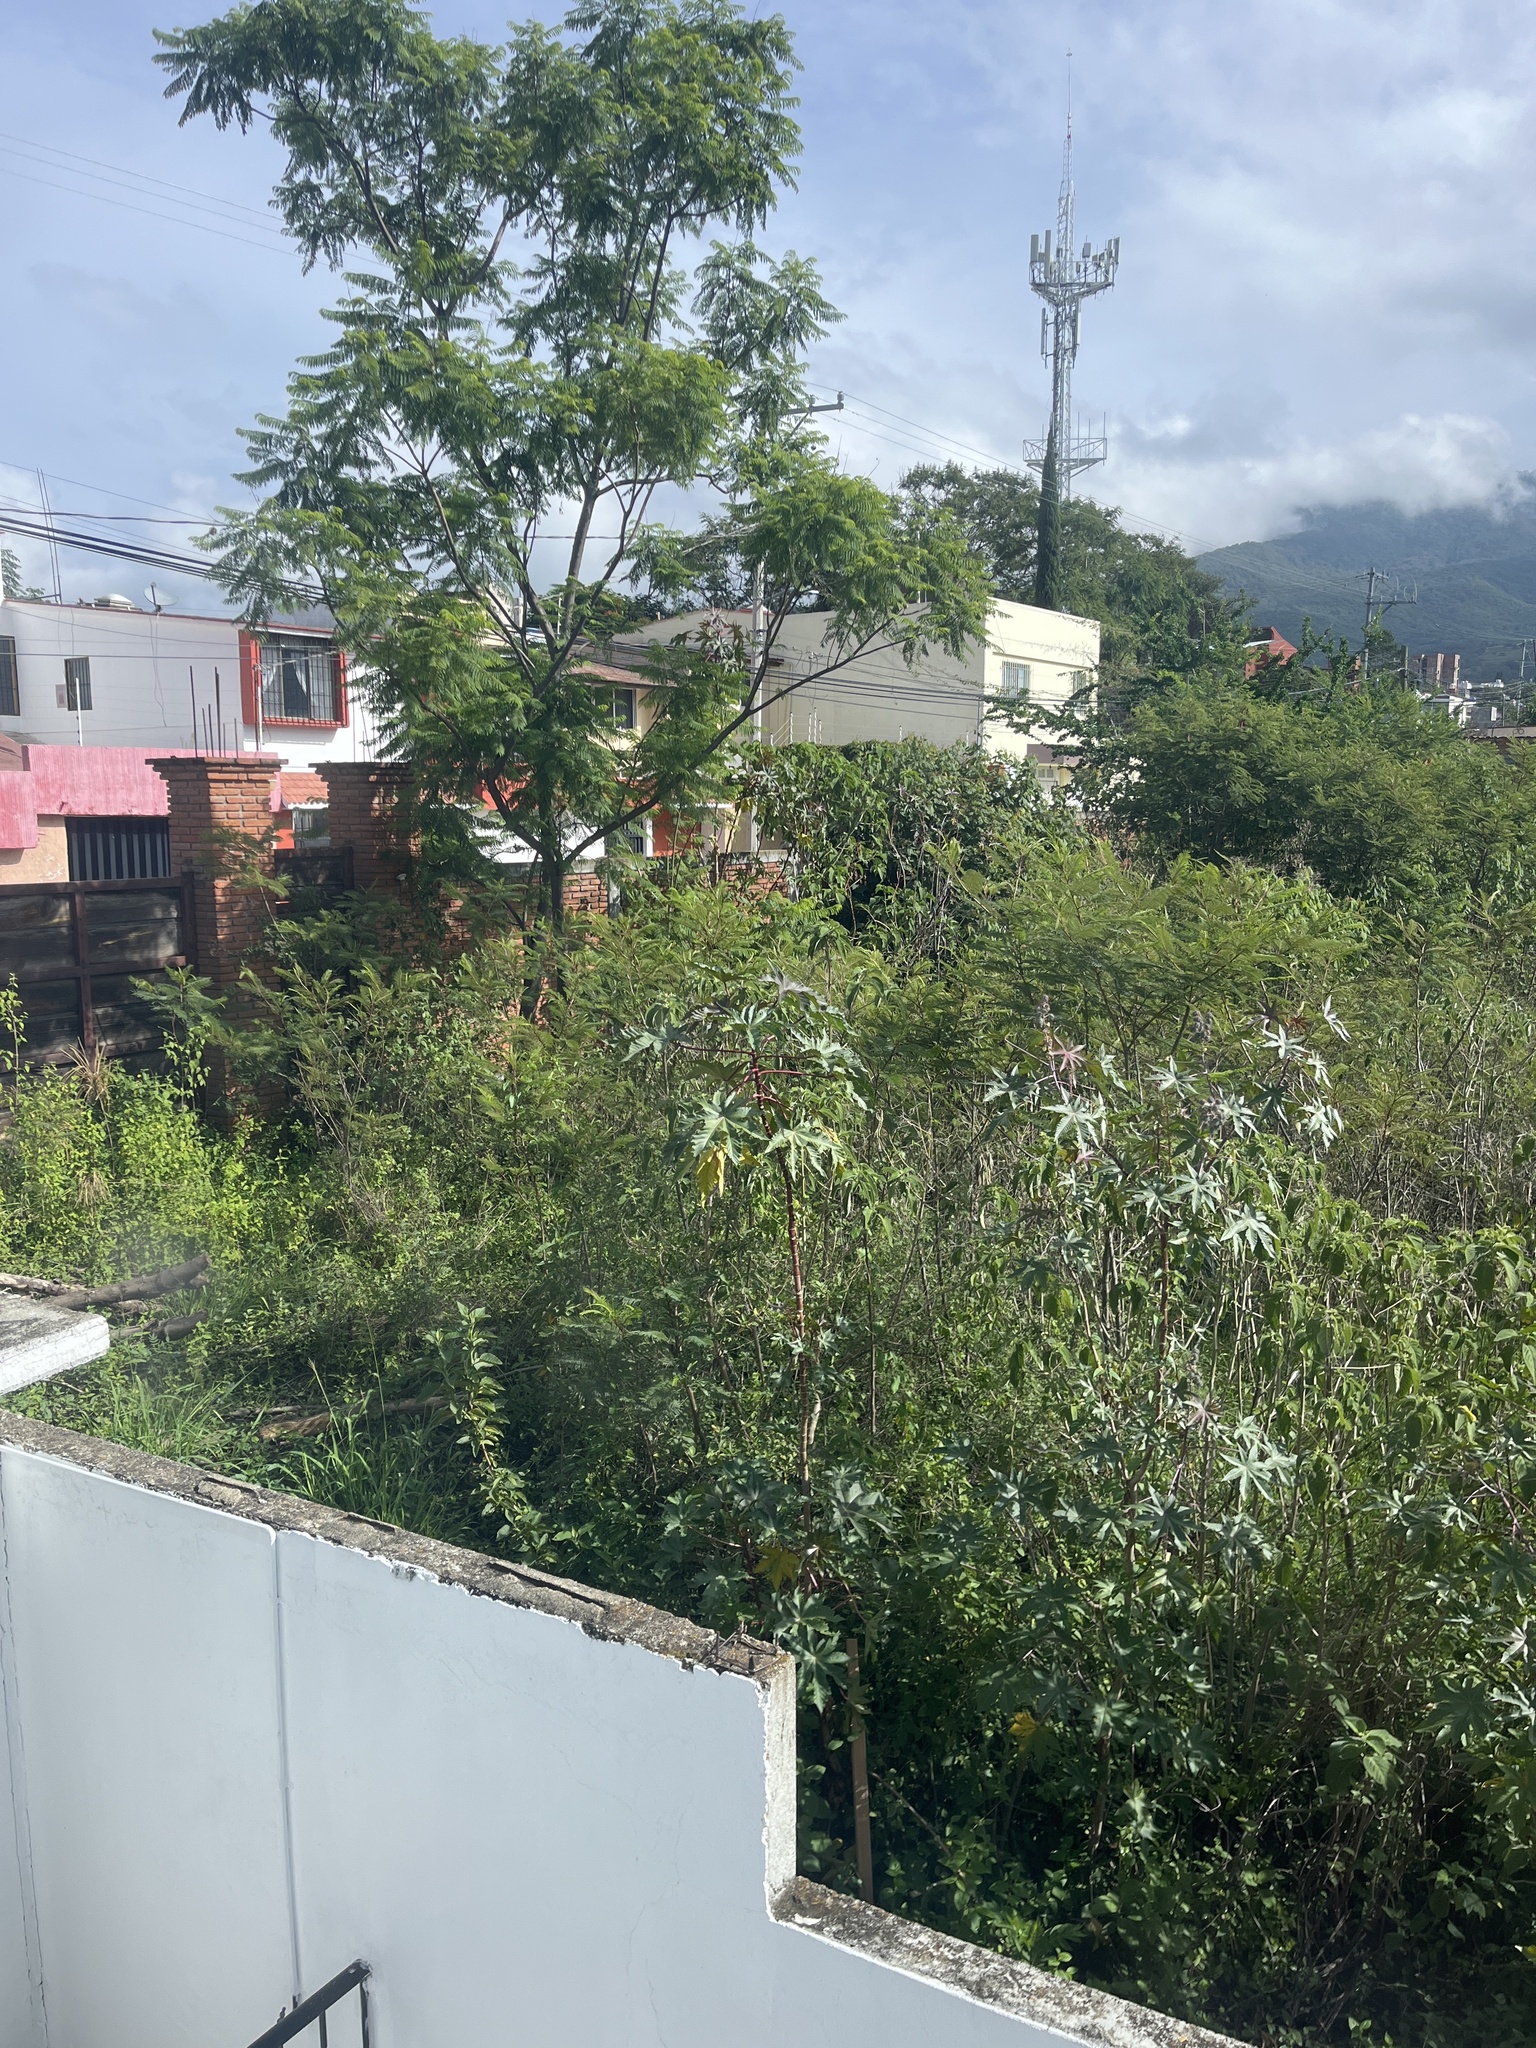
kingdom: Plantae
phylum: Tracheophyta
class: Magnoliopsida
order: Malpighiales
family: Euphorbiaceae
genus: Ricinus
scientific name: Ricinus communis
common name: Castor-oil-plant
